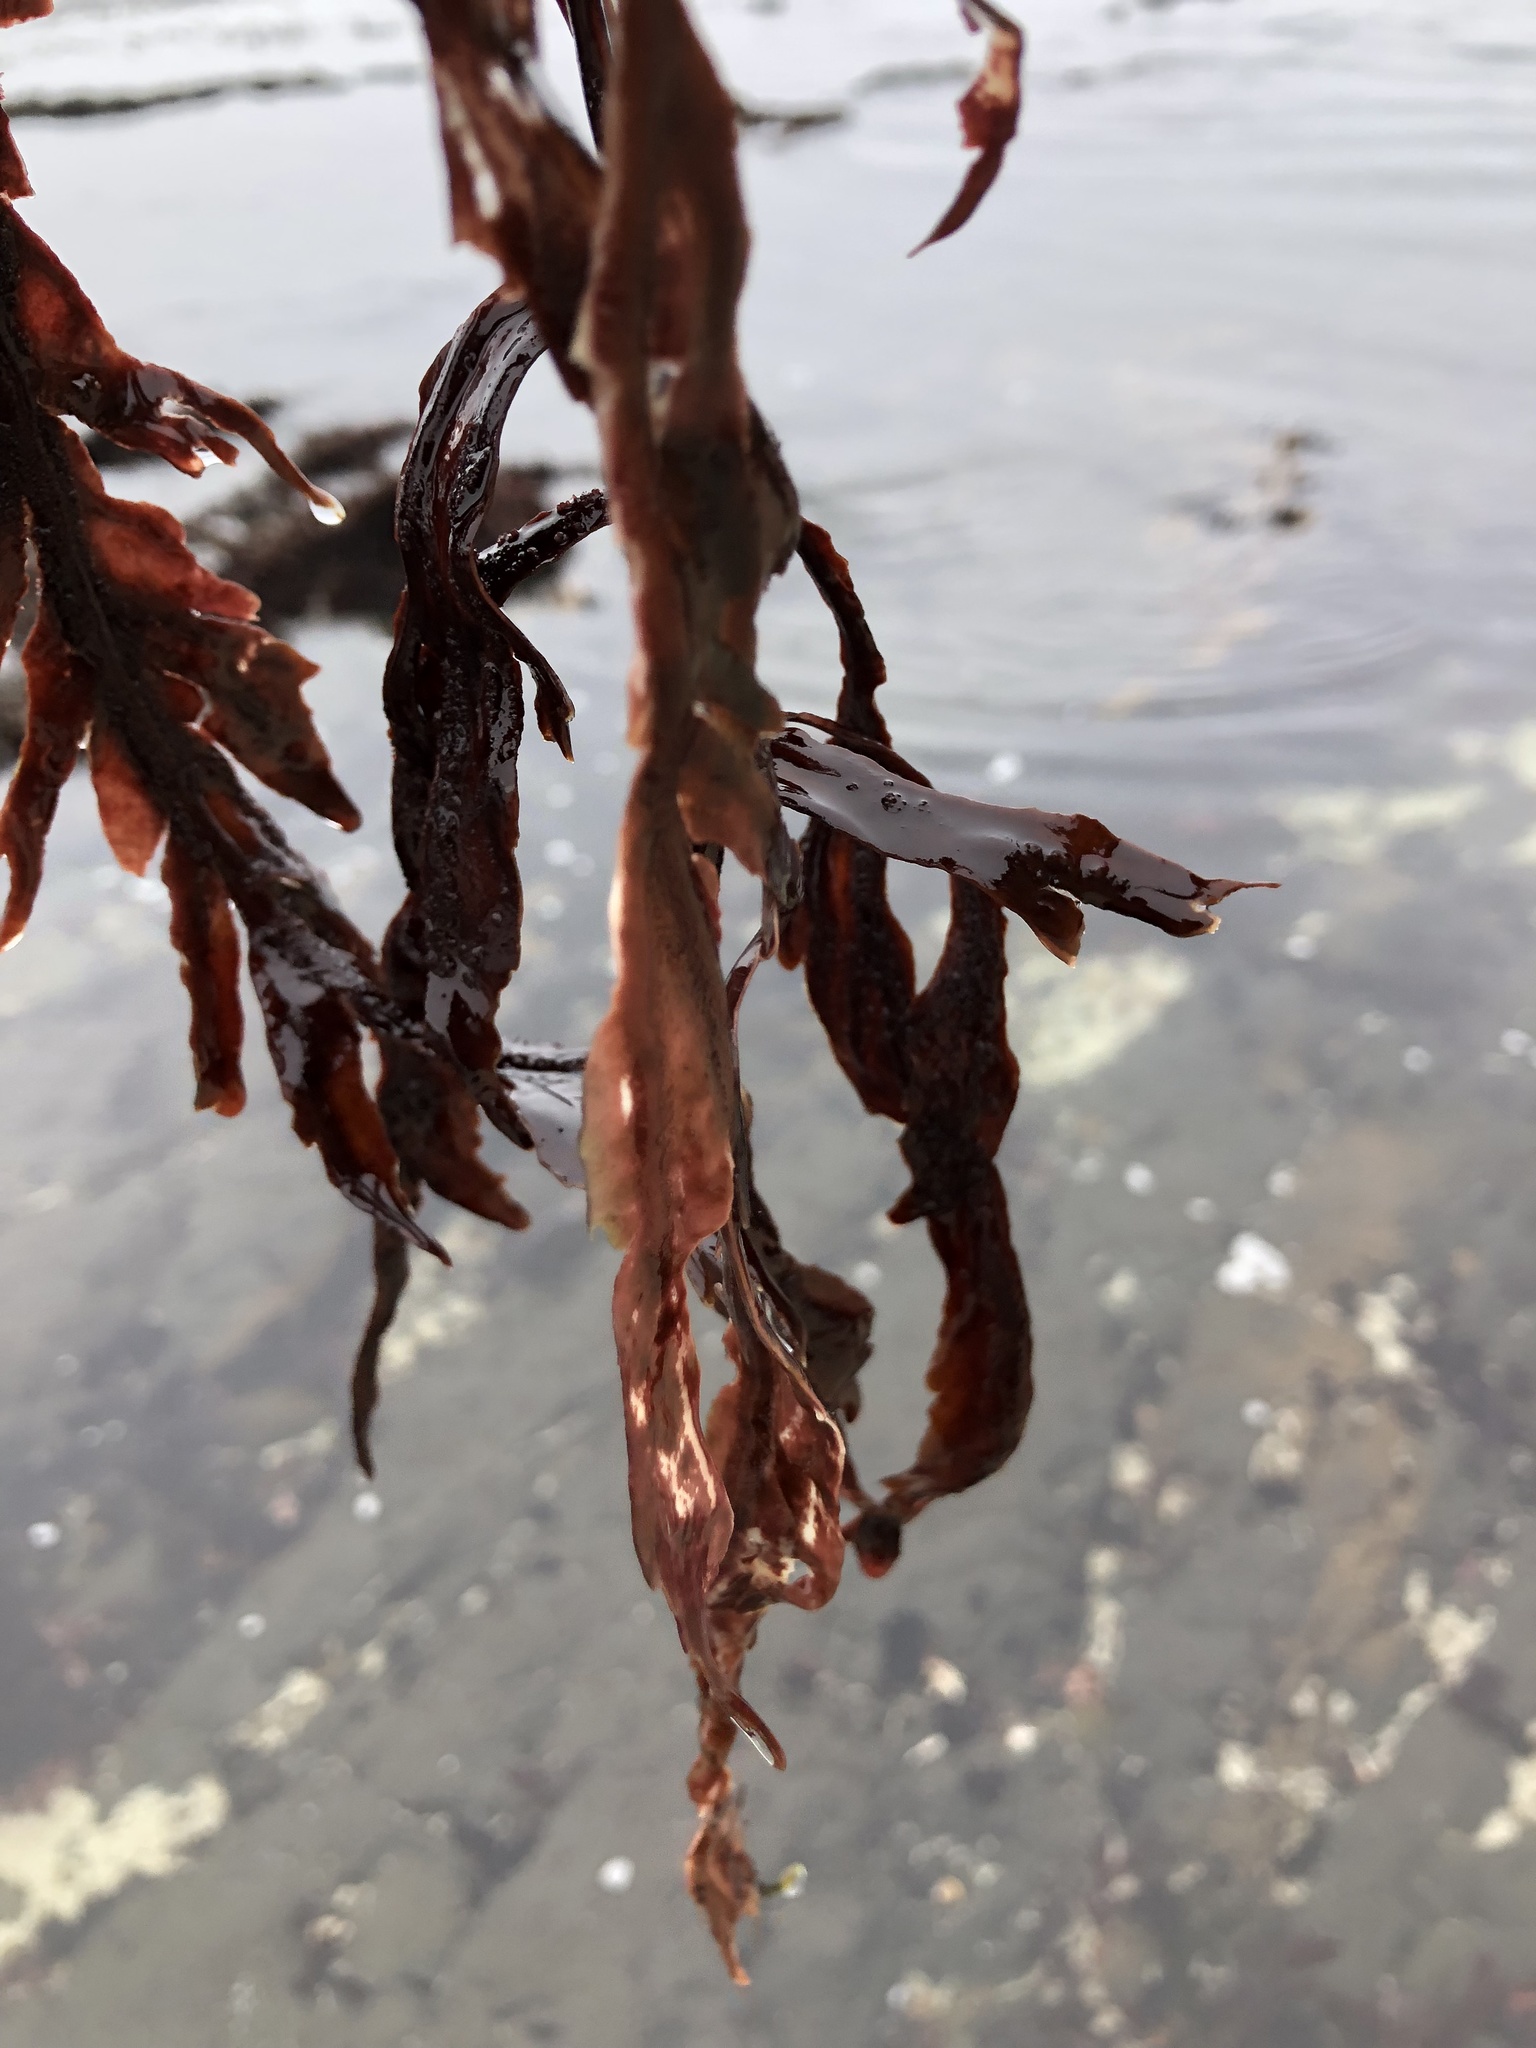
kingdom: Plantae
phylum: Rhodophyta
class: Florideophyceae
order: Gigartinales
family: Kallymeniaceae
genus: Erythrophyllum
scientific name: Erythrophyllum delesserioides
